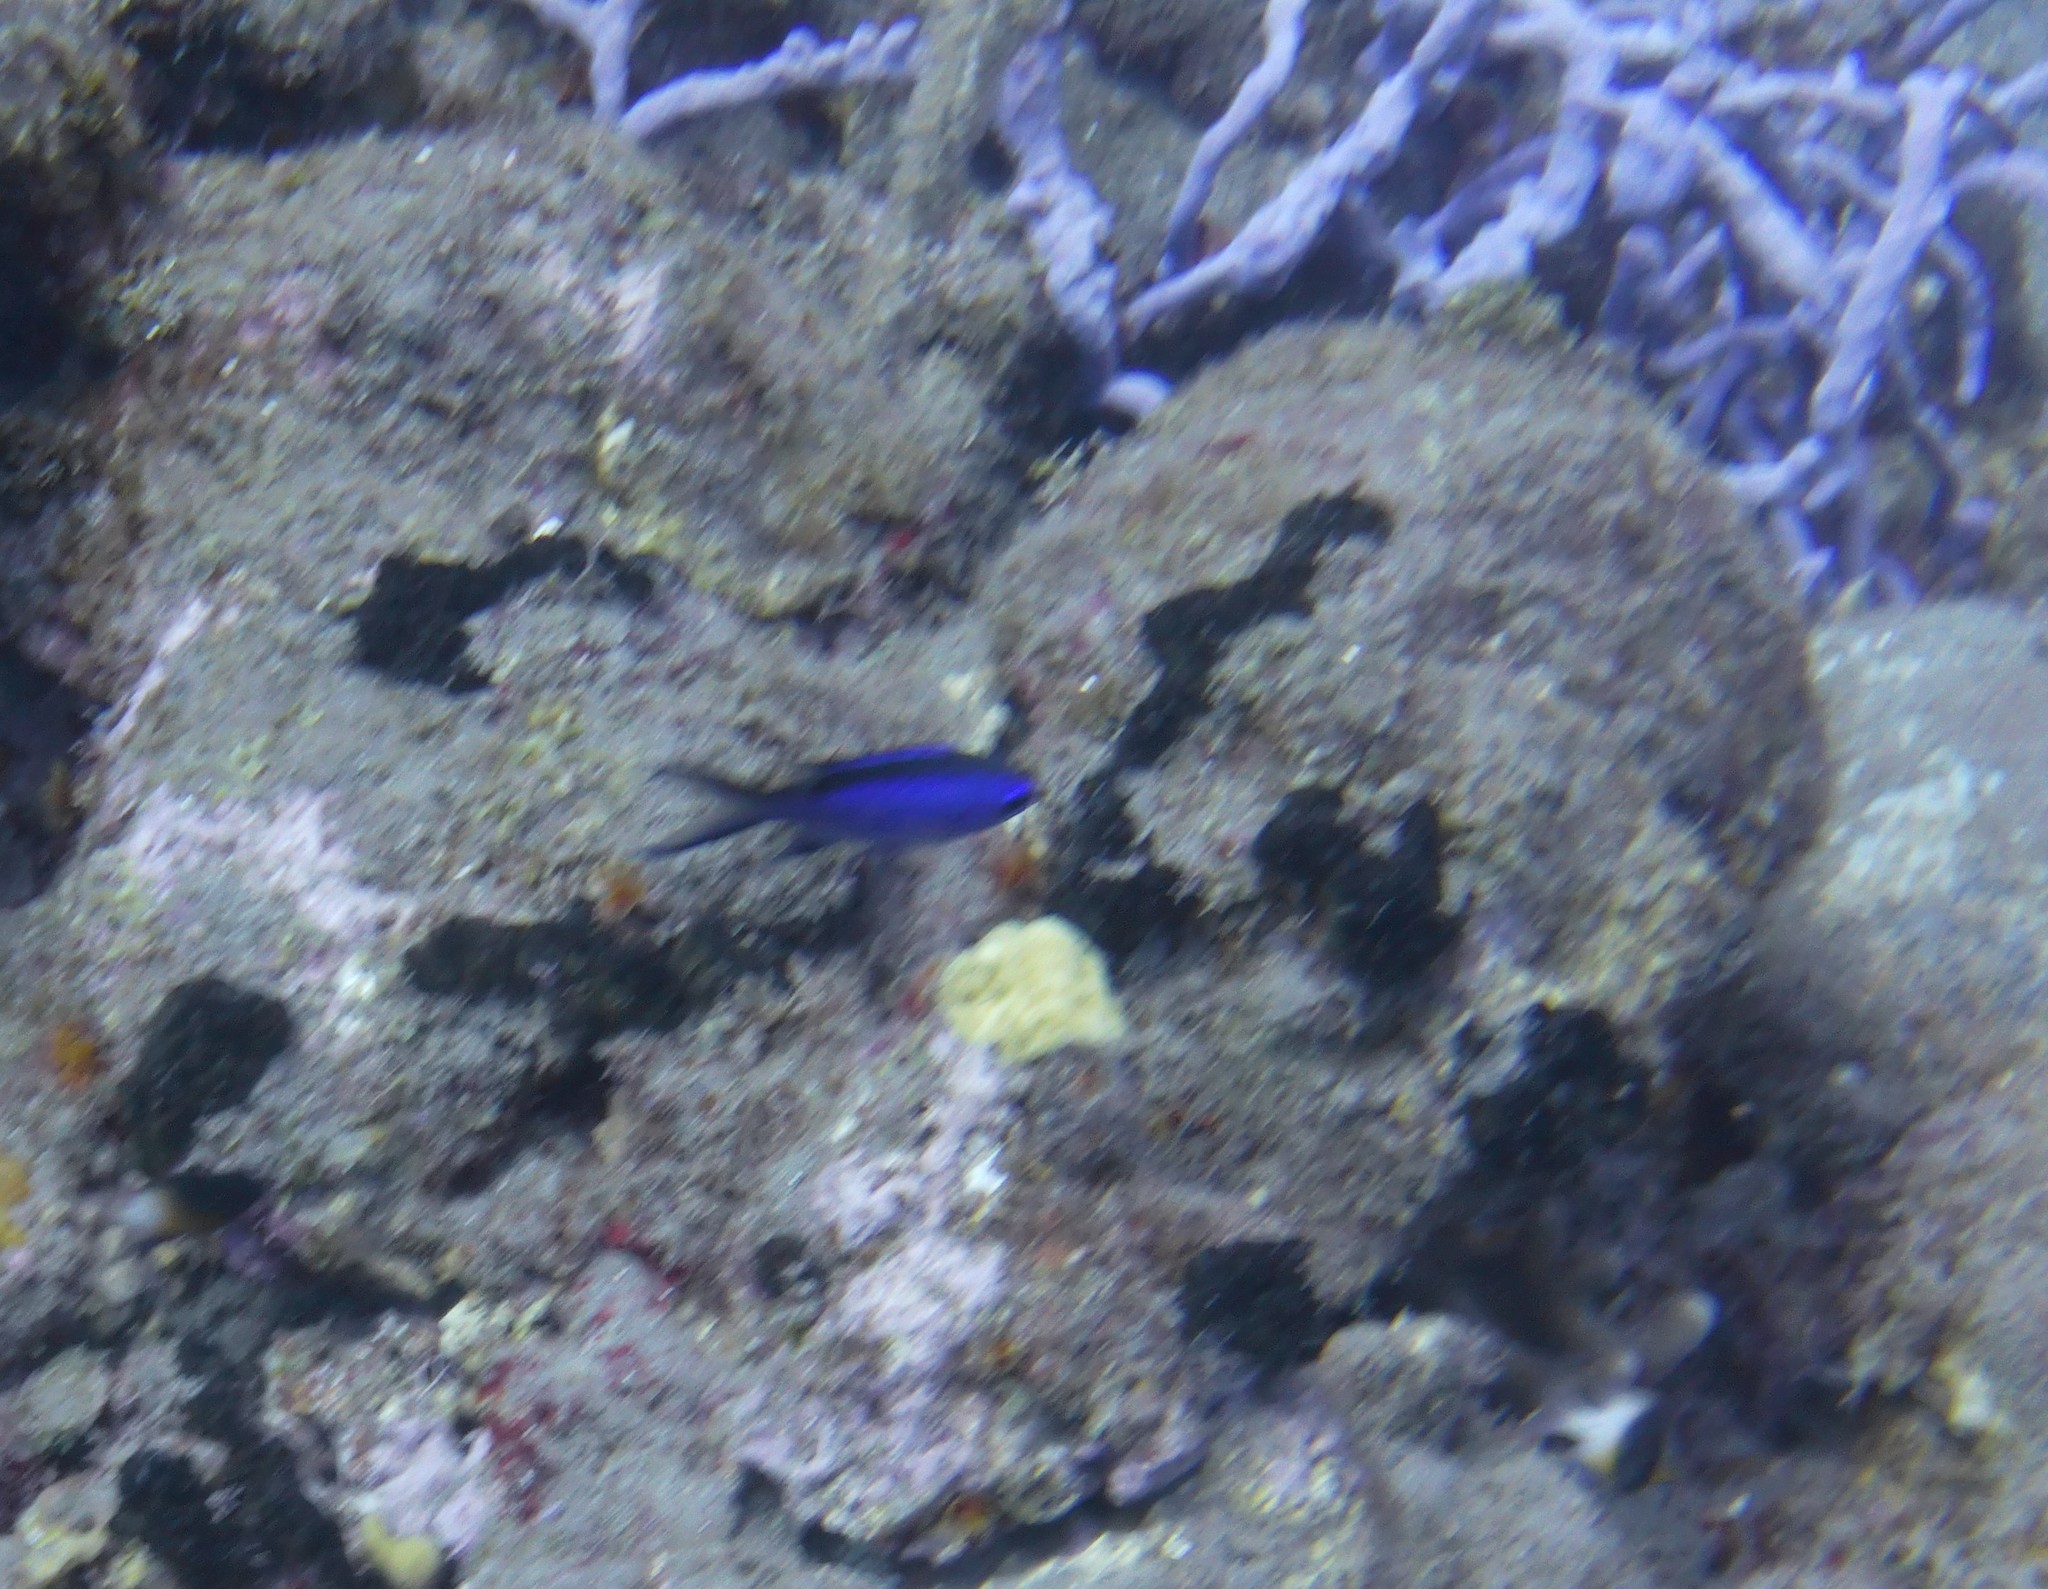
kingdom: Animalia
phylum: Chordata
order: Perciformes
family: Pomacentridae
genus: Chromis
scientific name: Chromis cyanea
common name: Blue chromis
